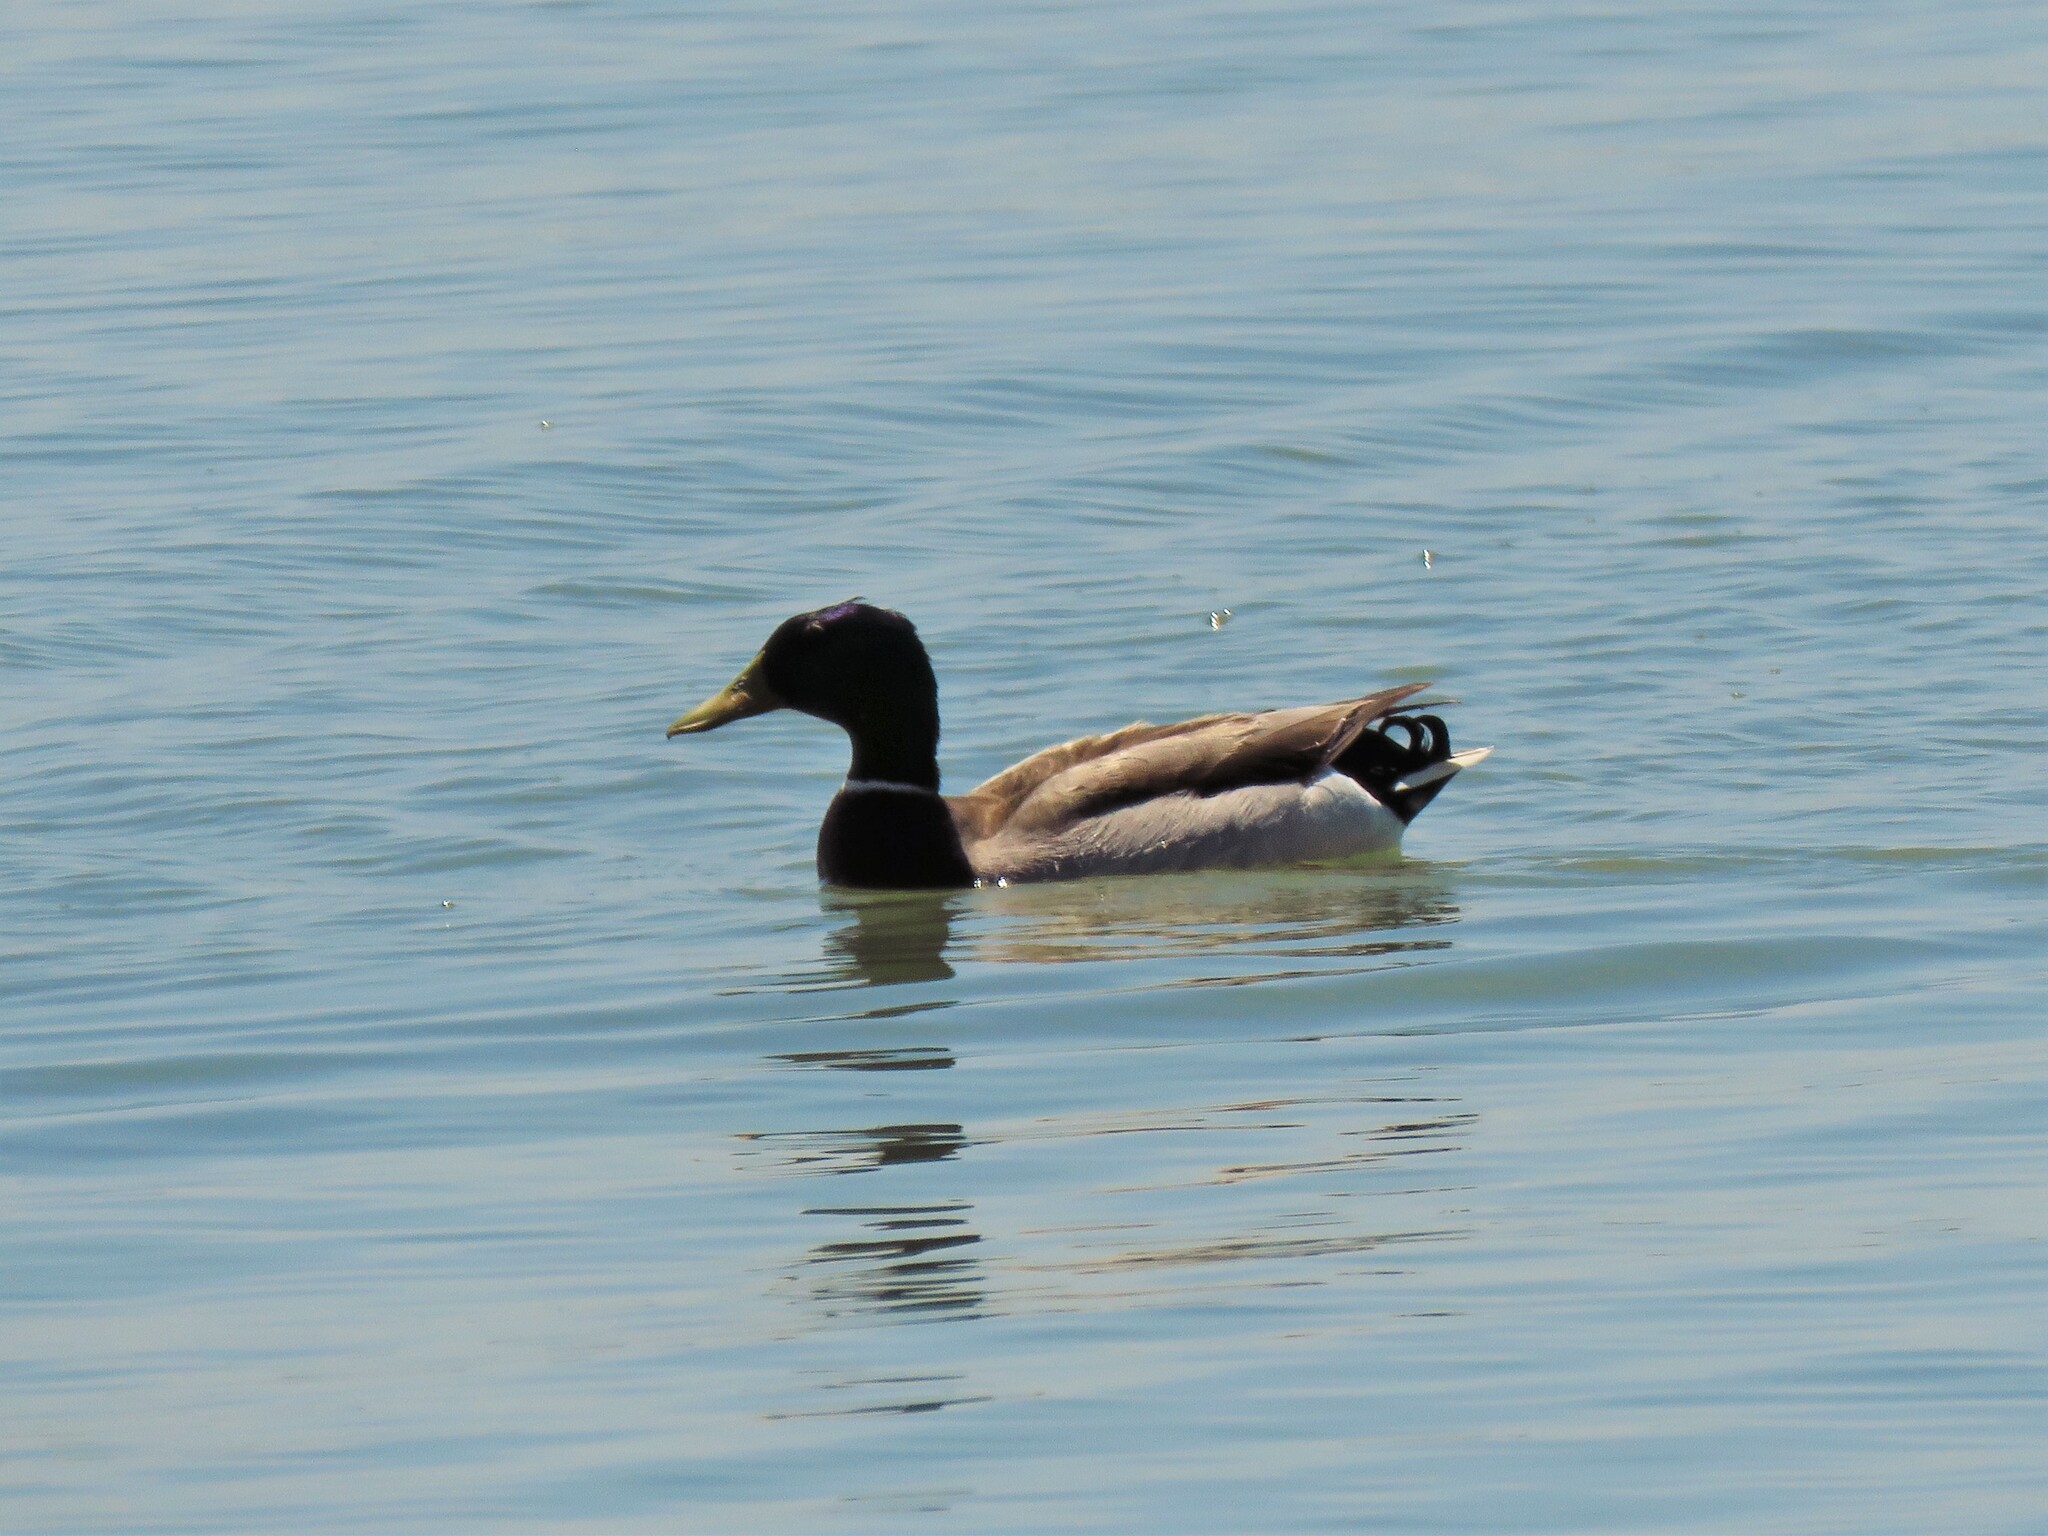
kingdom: Animalia
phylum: Chordata
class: Aves
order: Anseriformes
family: Anatidae
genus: Anas
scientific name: Anas platyrhynchos
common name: Mallard
